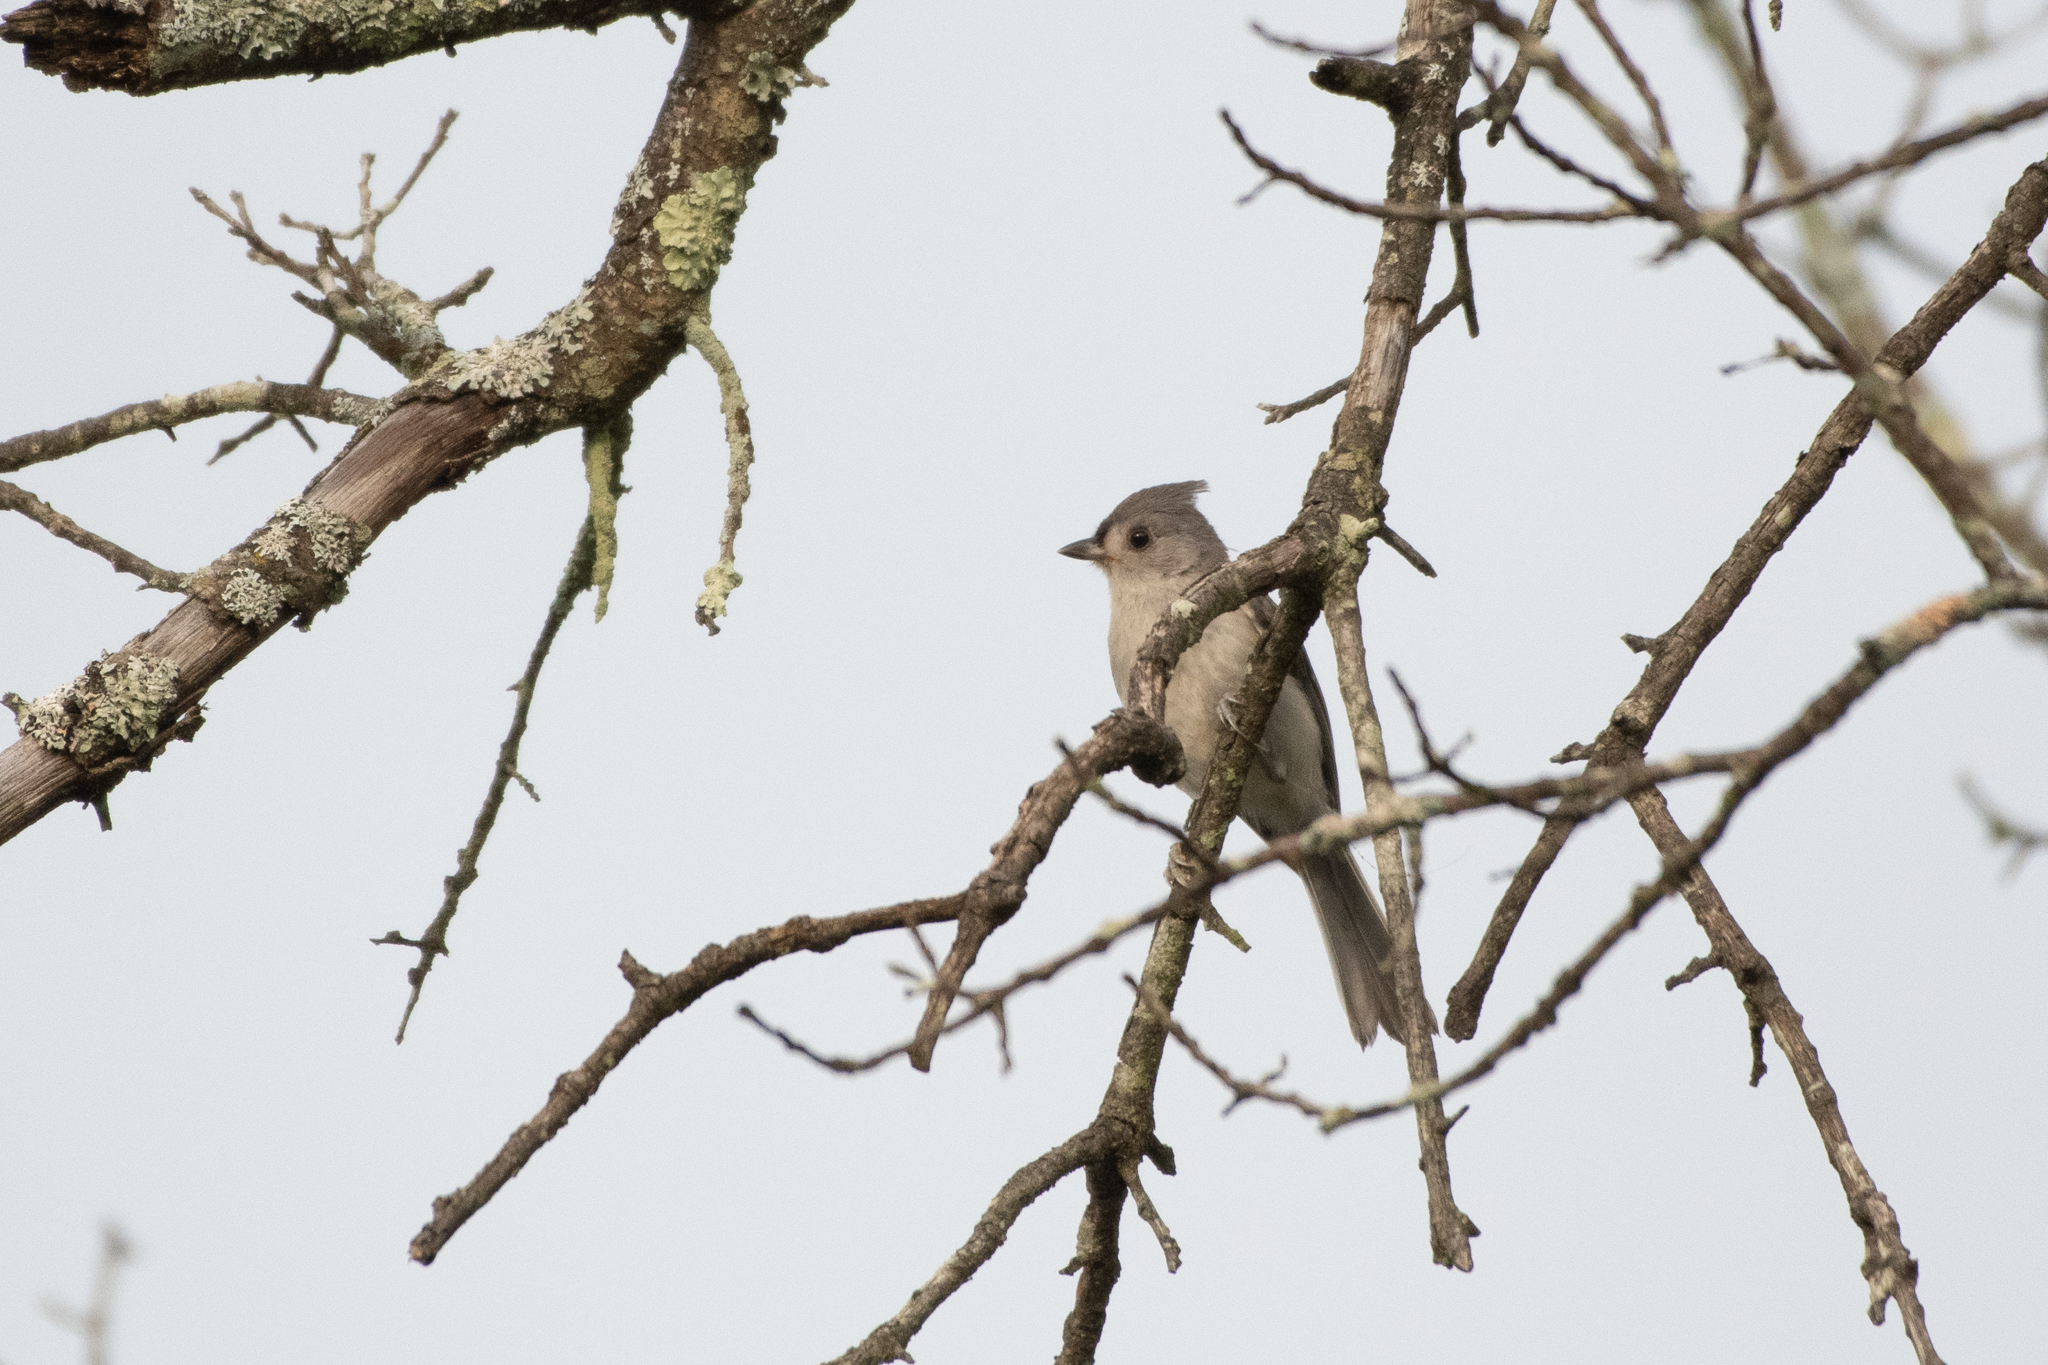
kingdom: Animalia
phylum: Chordata
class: Aves
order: Passeriformes
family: Paridae
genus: Baeolophus
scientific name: Baeolophus bicolor
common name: Tufted titmouse
